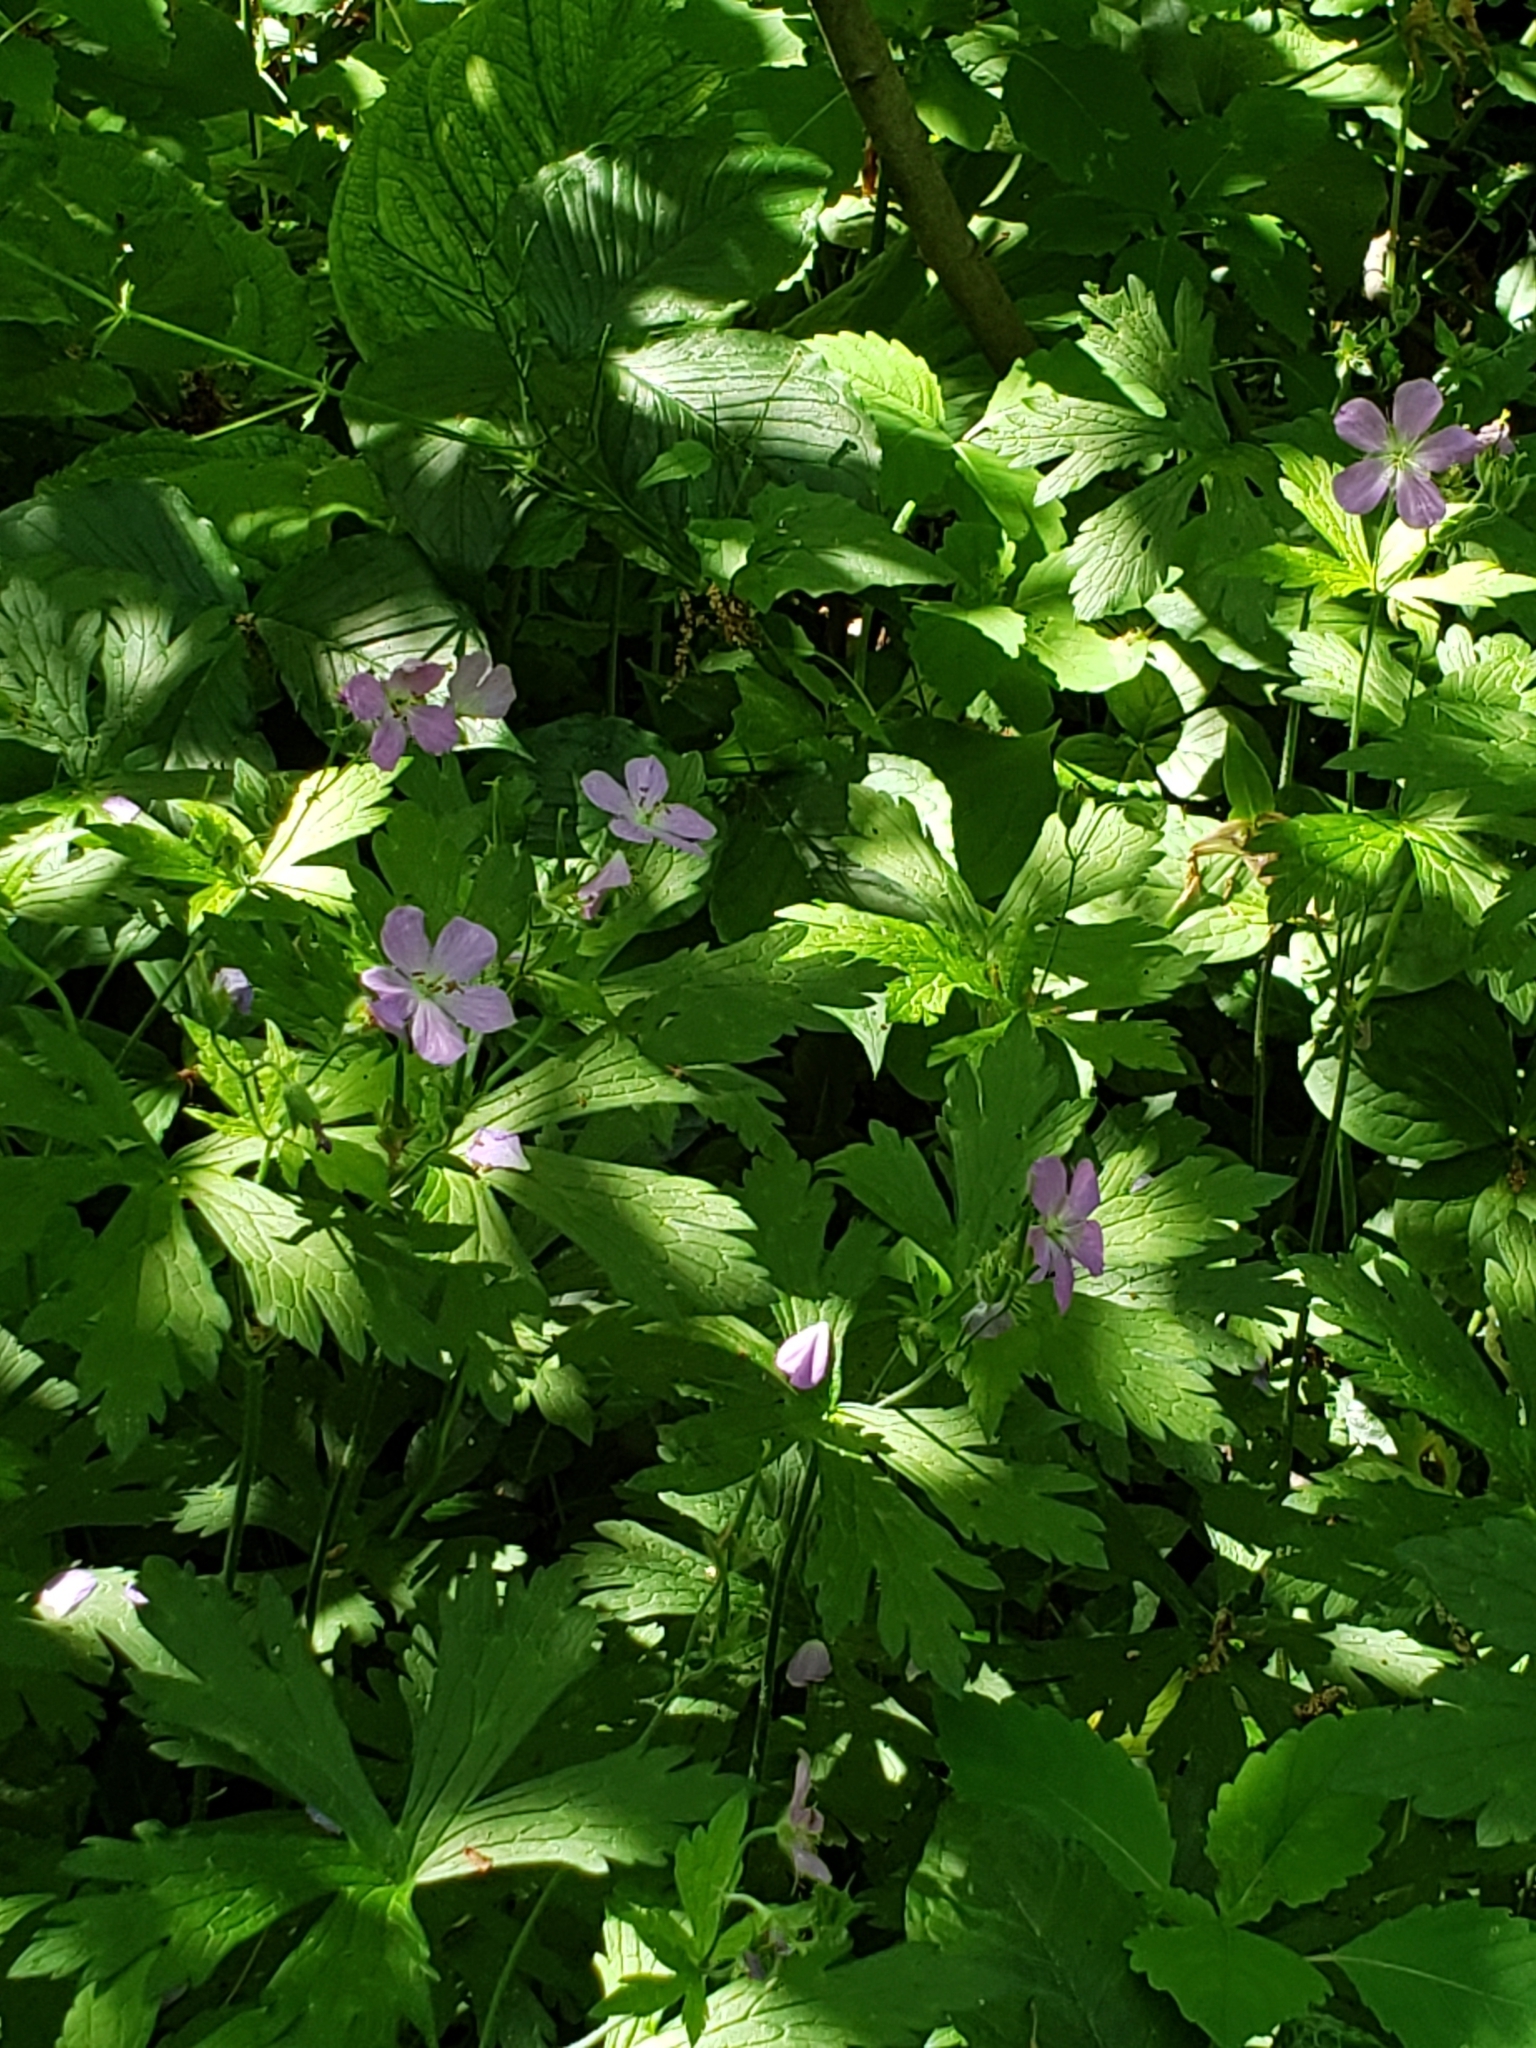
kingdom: Plantae
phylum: Tracheophyta
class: Magnoliopsida
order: Geraniales
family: Geraniaceae
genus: Geranium
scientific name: Geranium maculatum
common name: Spotted geranium
